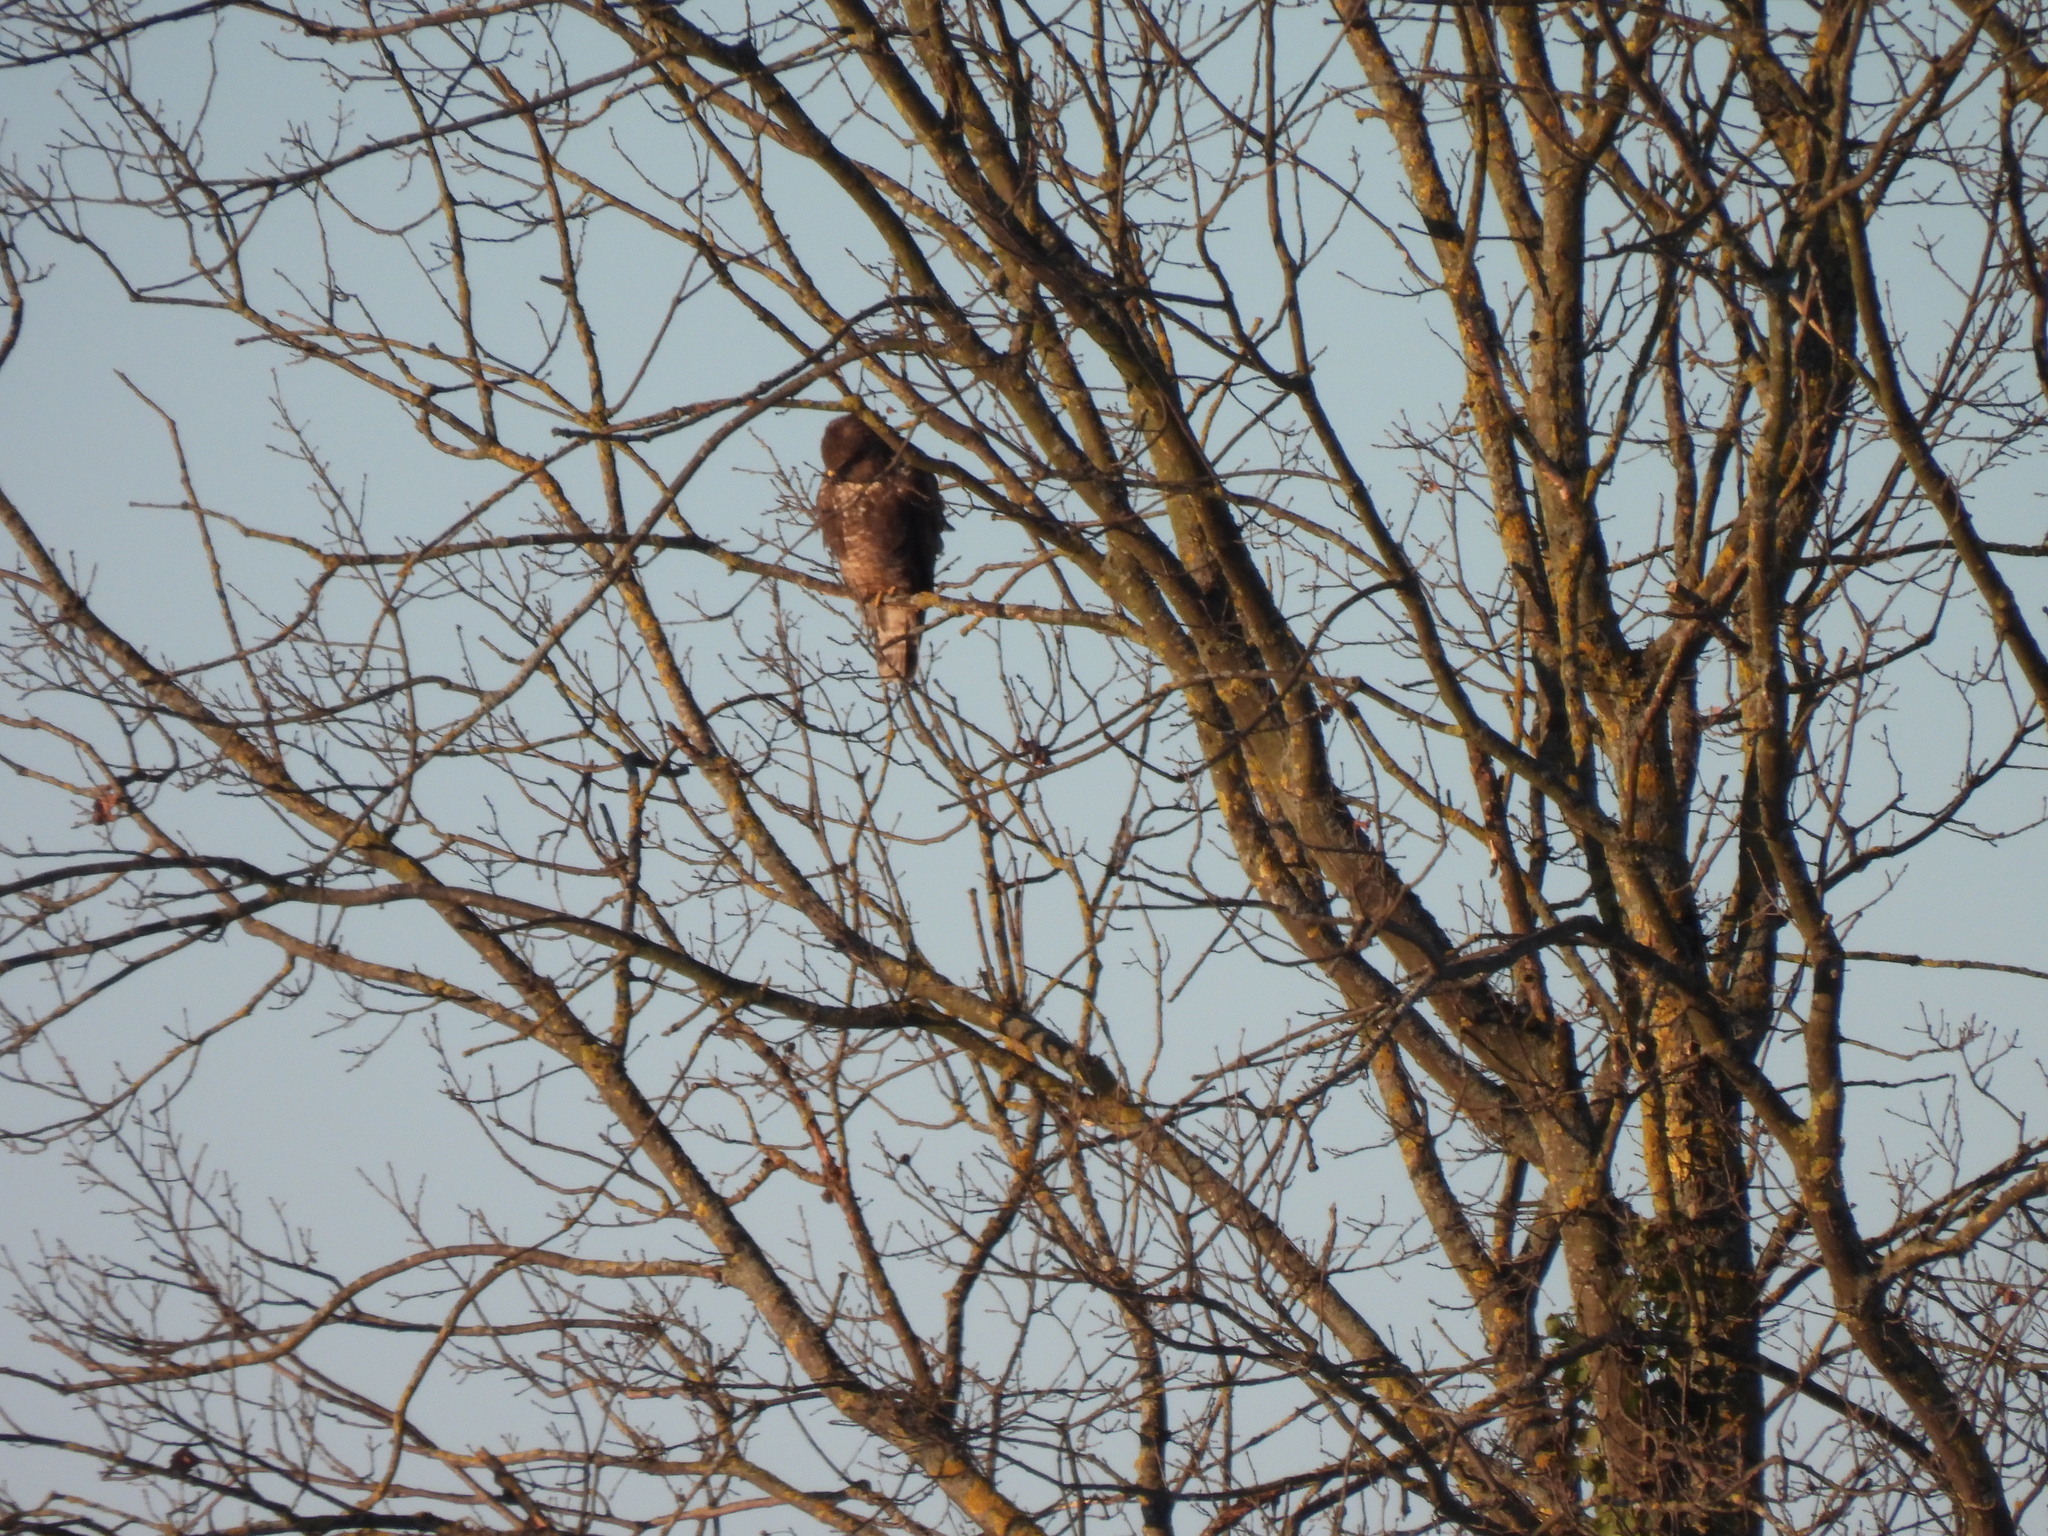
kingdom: Animalia
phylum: Chordata
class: Aves
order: Accipitriformes
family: Accipitridae
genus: Buteo
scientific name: Buteo buteo
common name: Common buzzard
